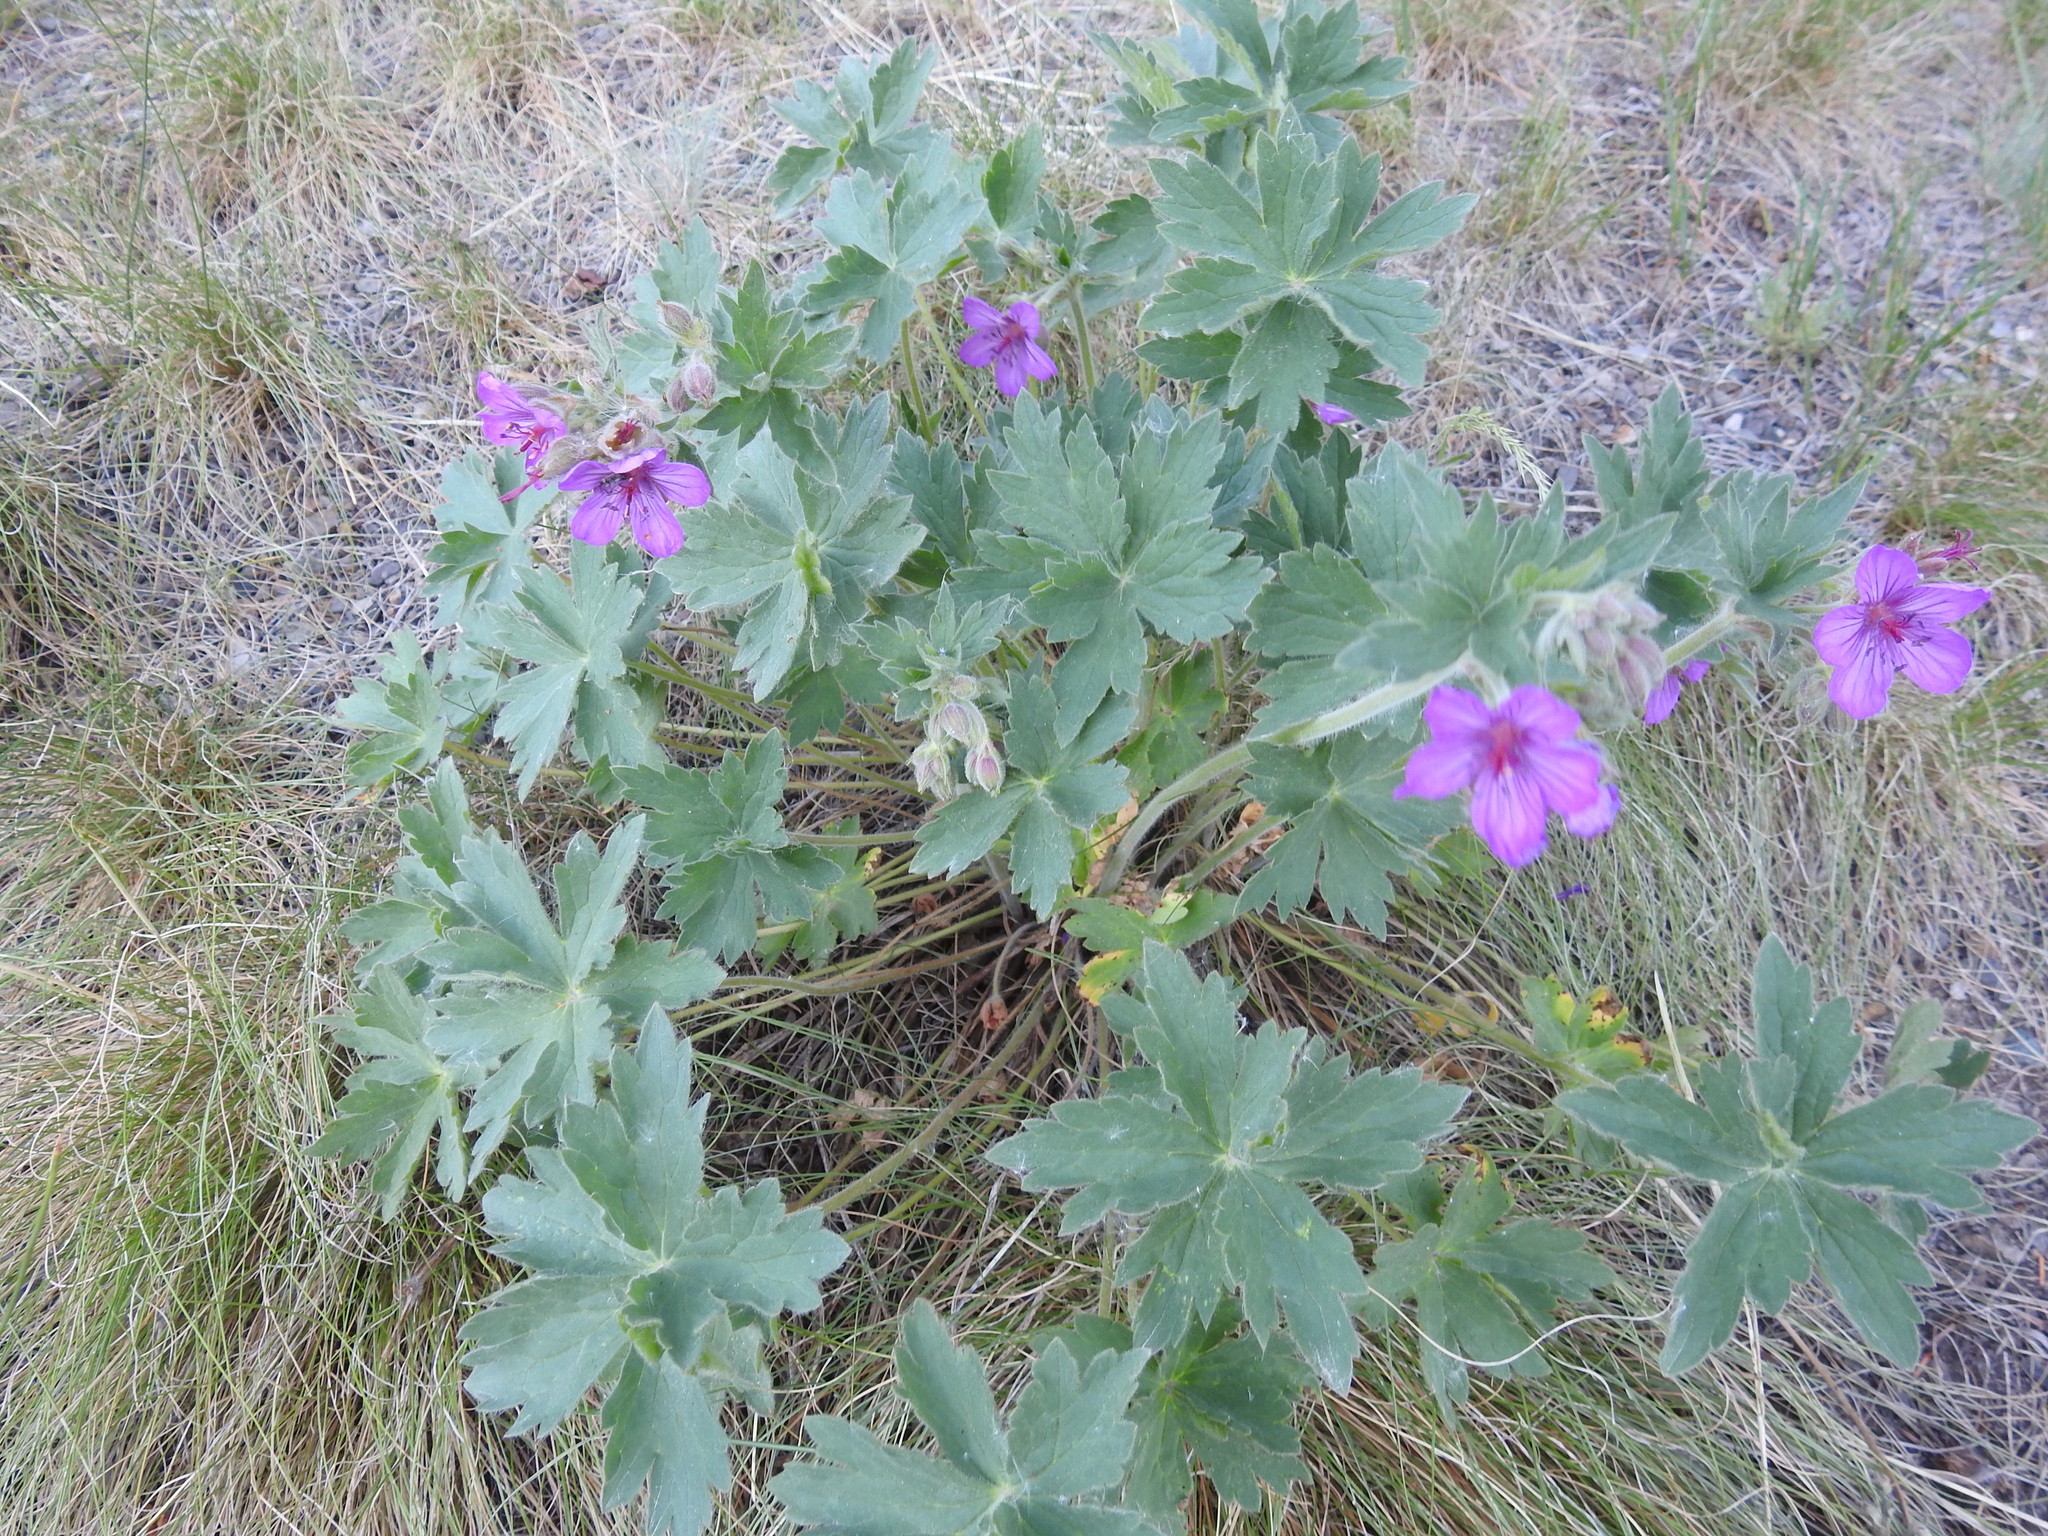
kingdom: Plantae
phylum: Tracheophyta
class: Magnoliopsida
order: Geraniales
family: Geraniaceae
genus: Geranium
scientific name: Geranium viscosissimum
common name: Purple geranium
